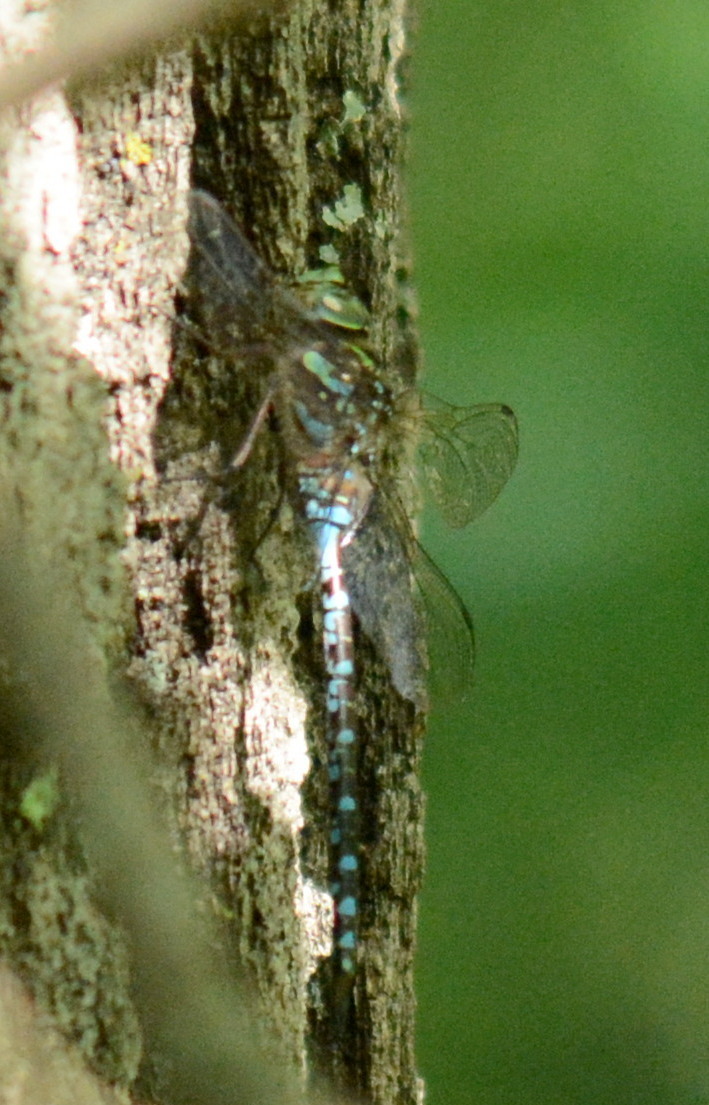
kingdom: Animalia
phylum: Arthropoda
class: Insecta
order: Odonata
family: Aeshnidae
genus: Aeshna
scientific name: Aeshna canadensis
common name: Canada darner
